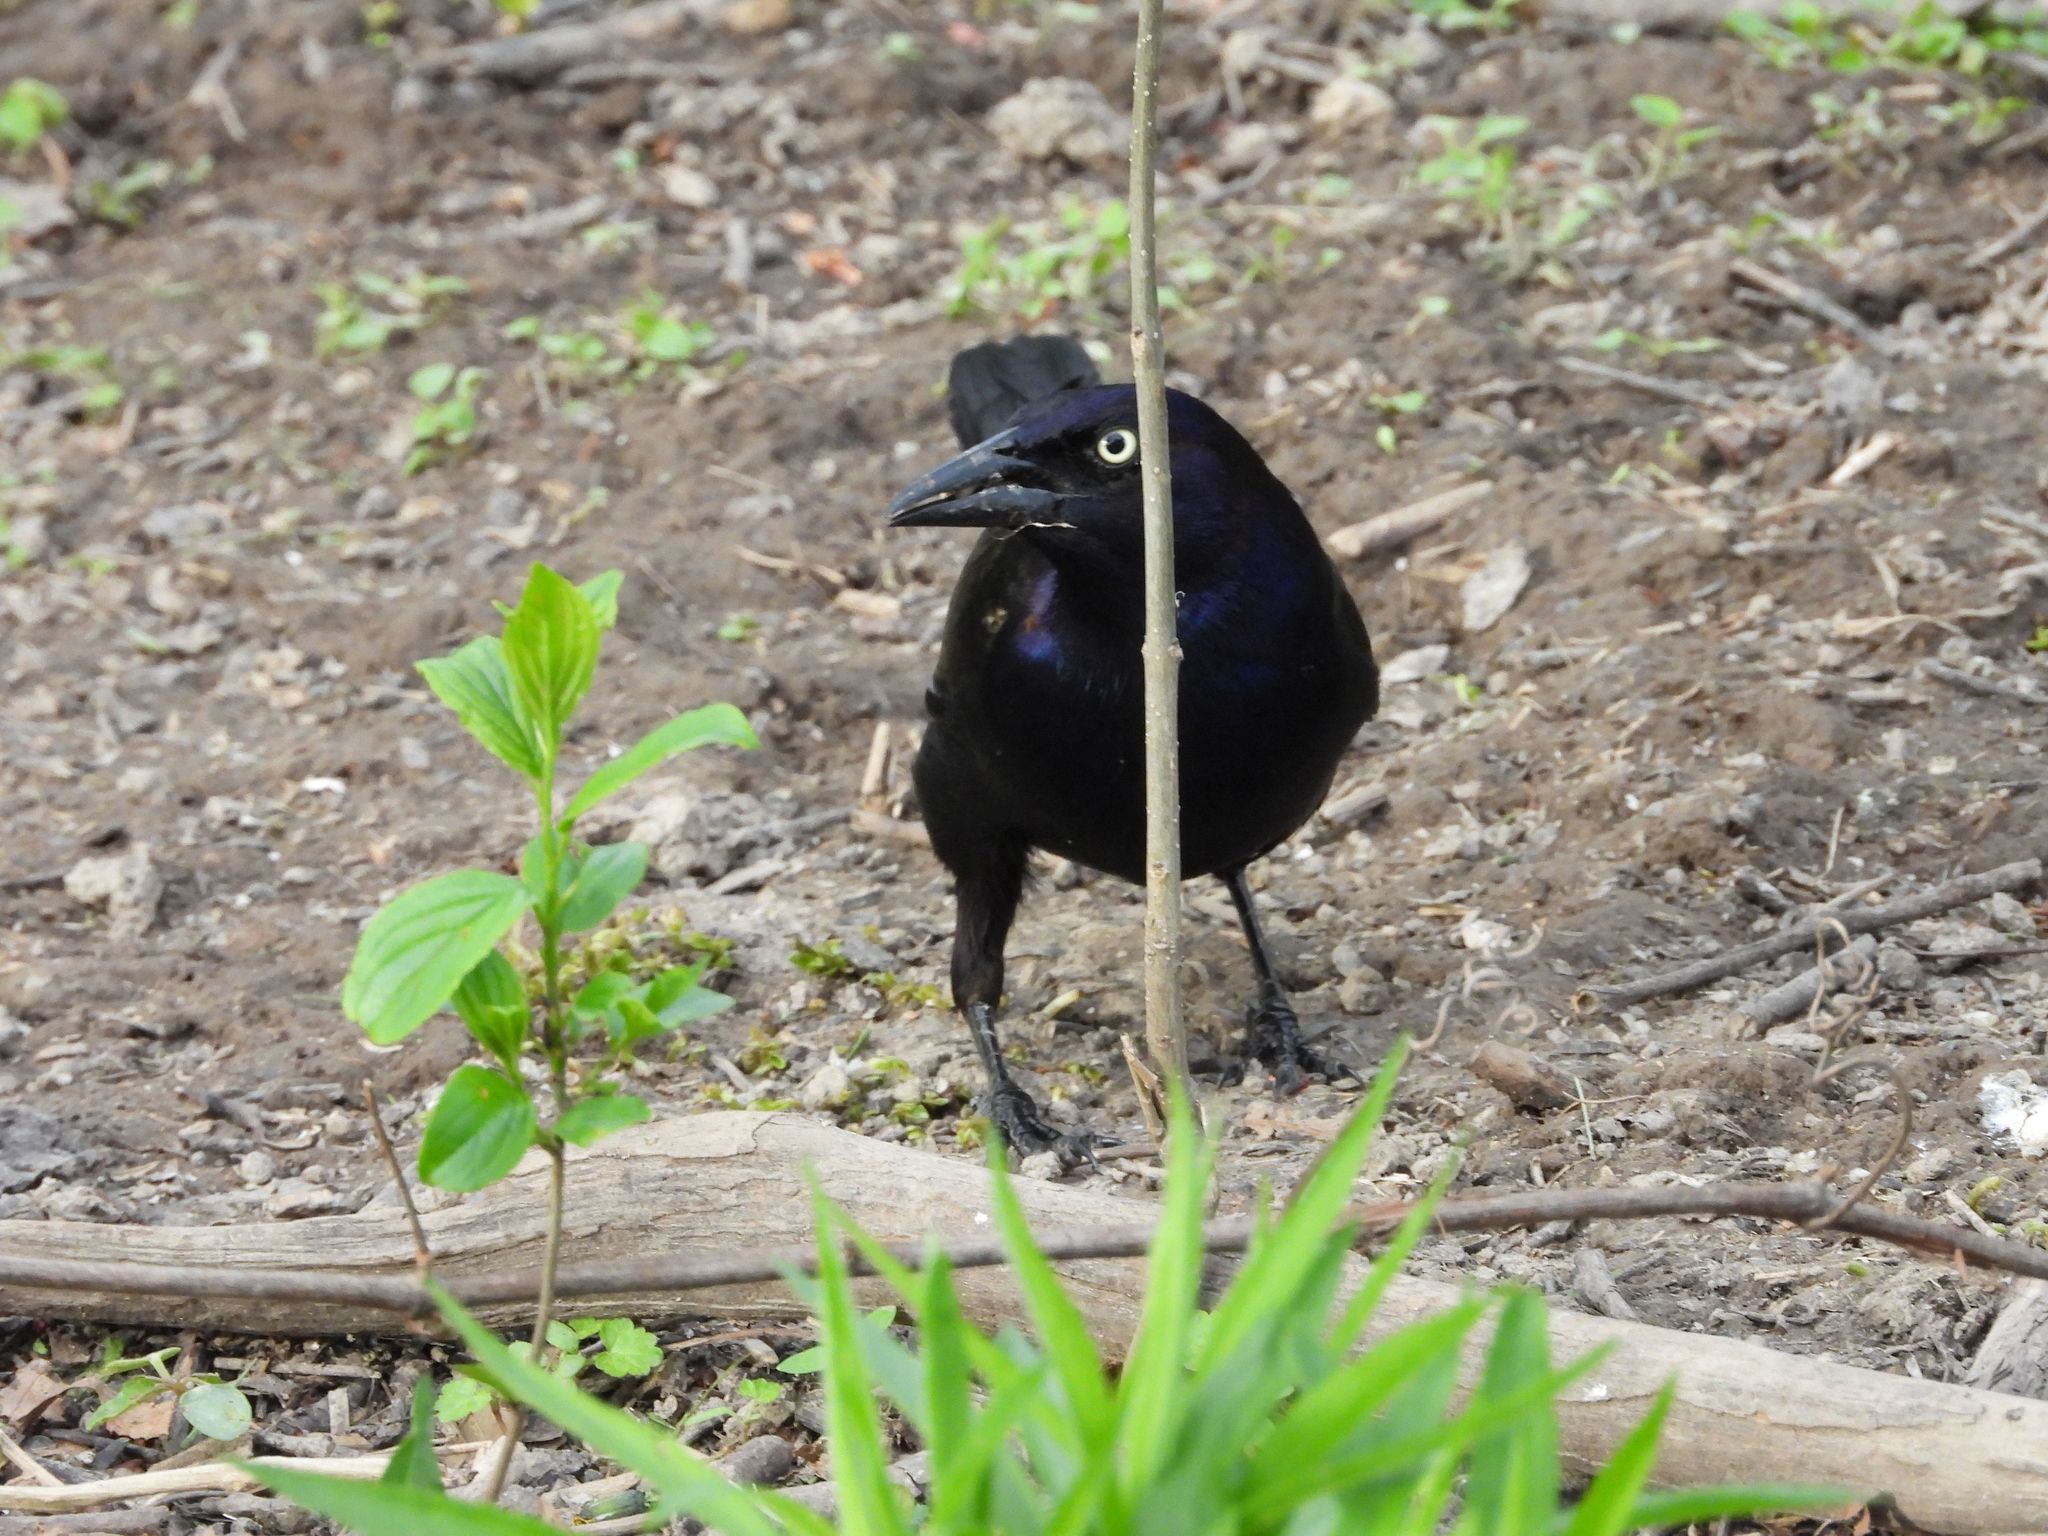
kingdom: Animalia
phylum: Chordata
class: Aves
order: Passeriformes
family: Icteridae
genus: Quiscalus
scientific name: Quiscalus quiscula
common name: Common grackle
